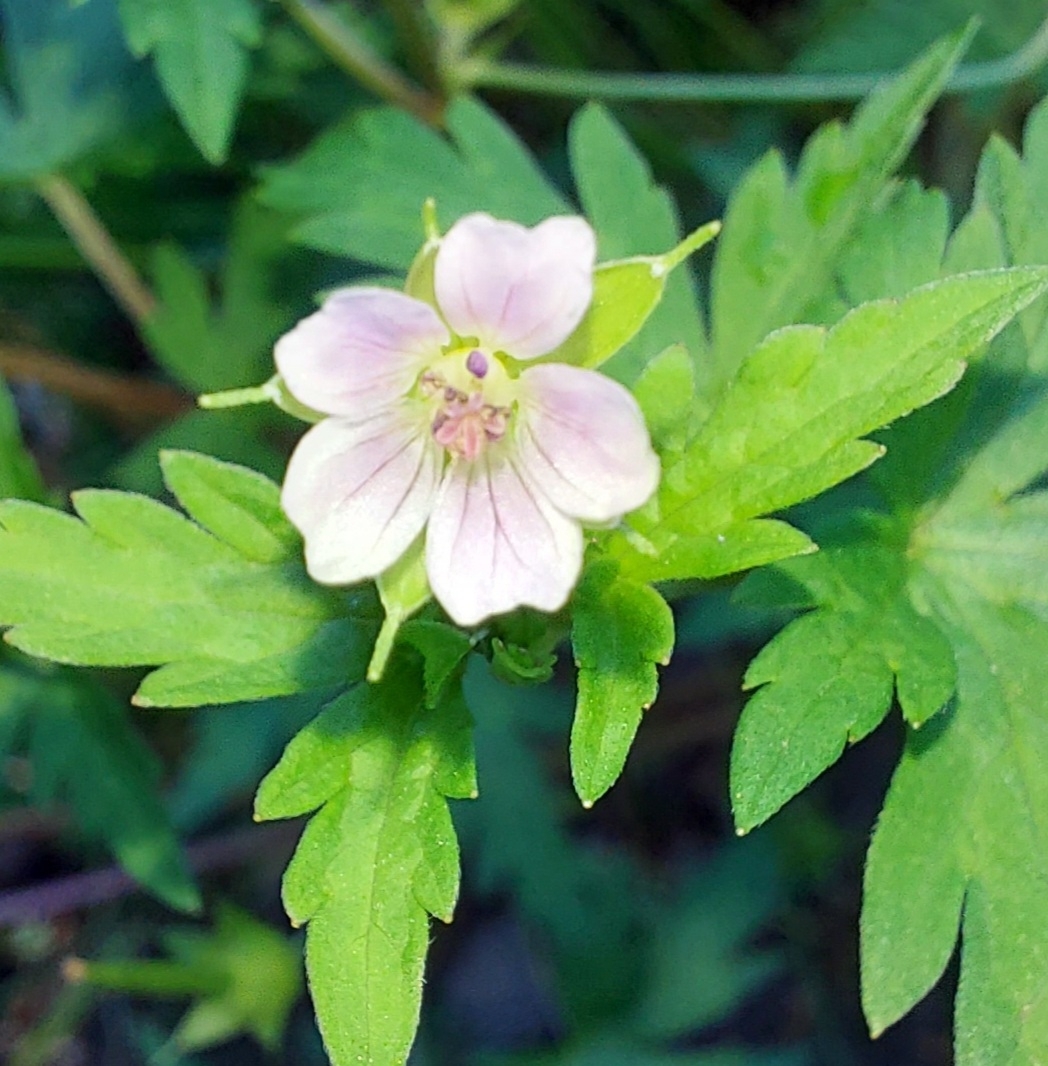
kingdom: Plantae
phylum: Tracheophyta
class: Magnoliopsida
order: Geraniales
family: Geraniaceae
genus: Geranium
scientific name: Geranium sibiricum
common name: Siberian crane's-bill
